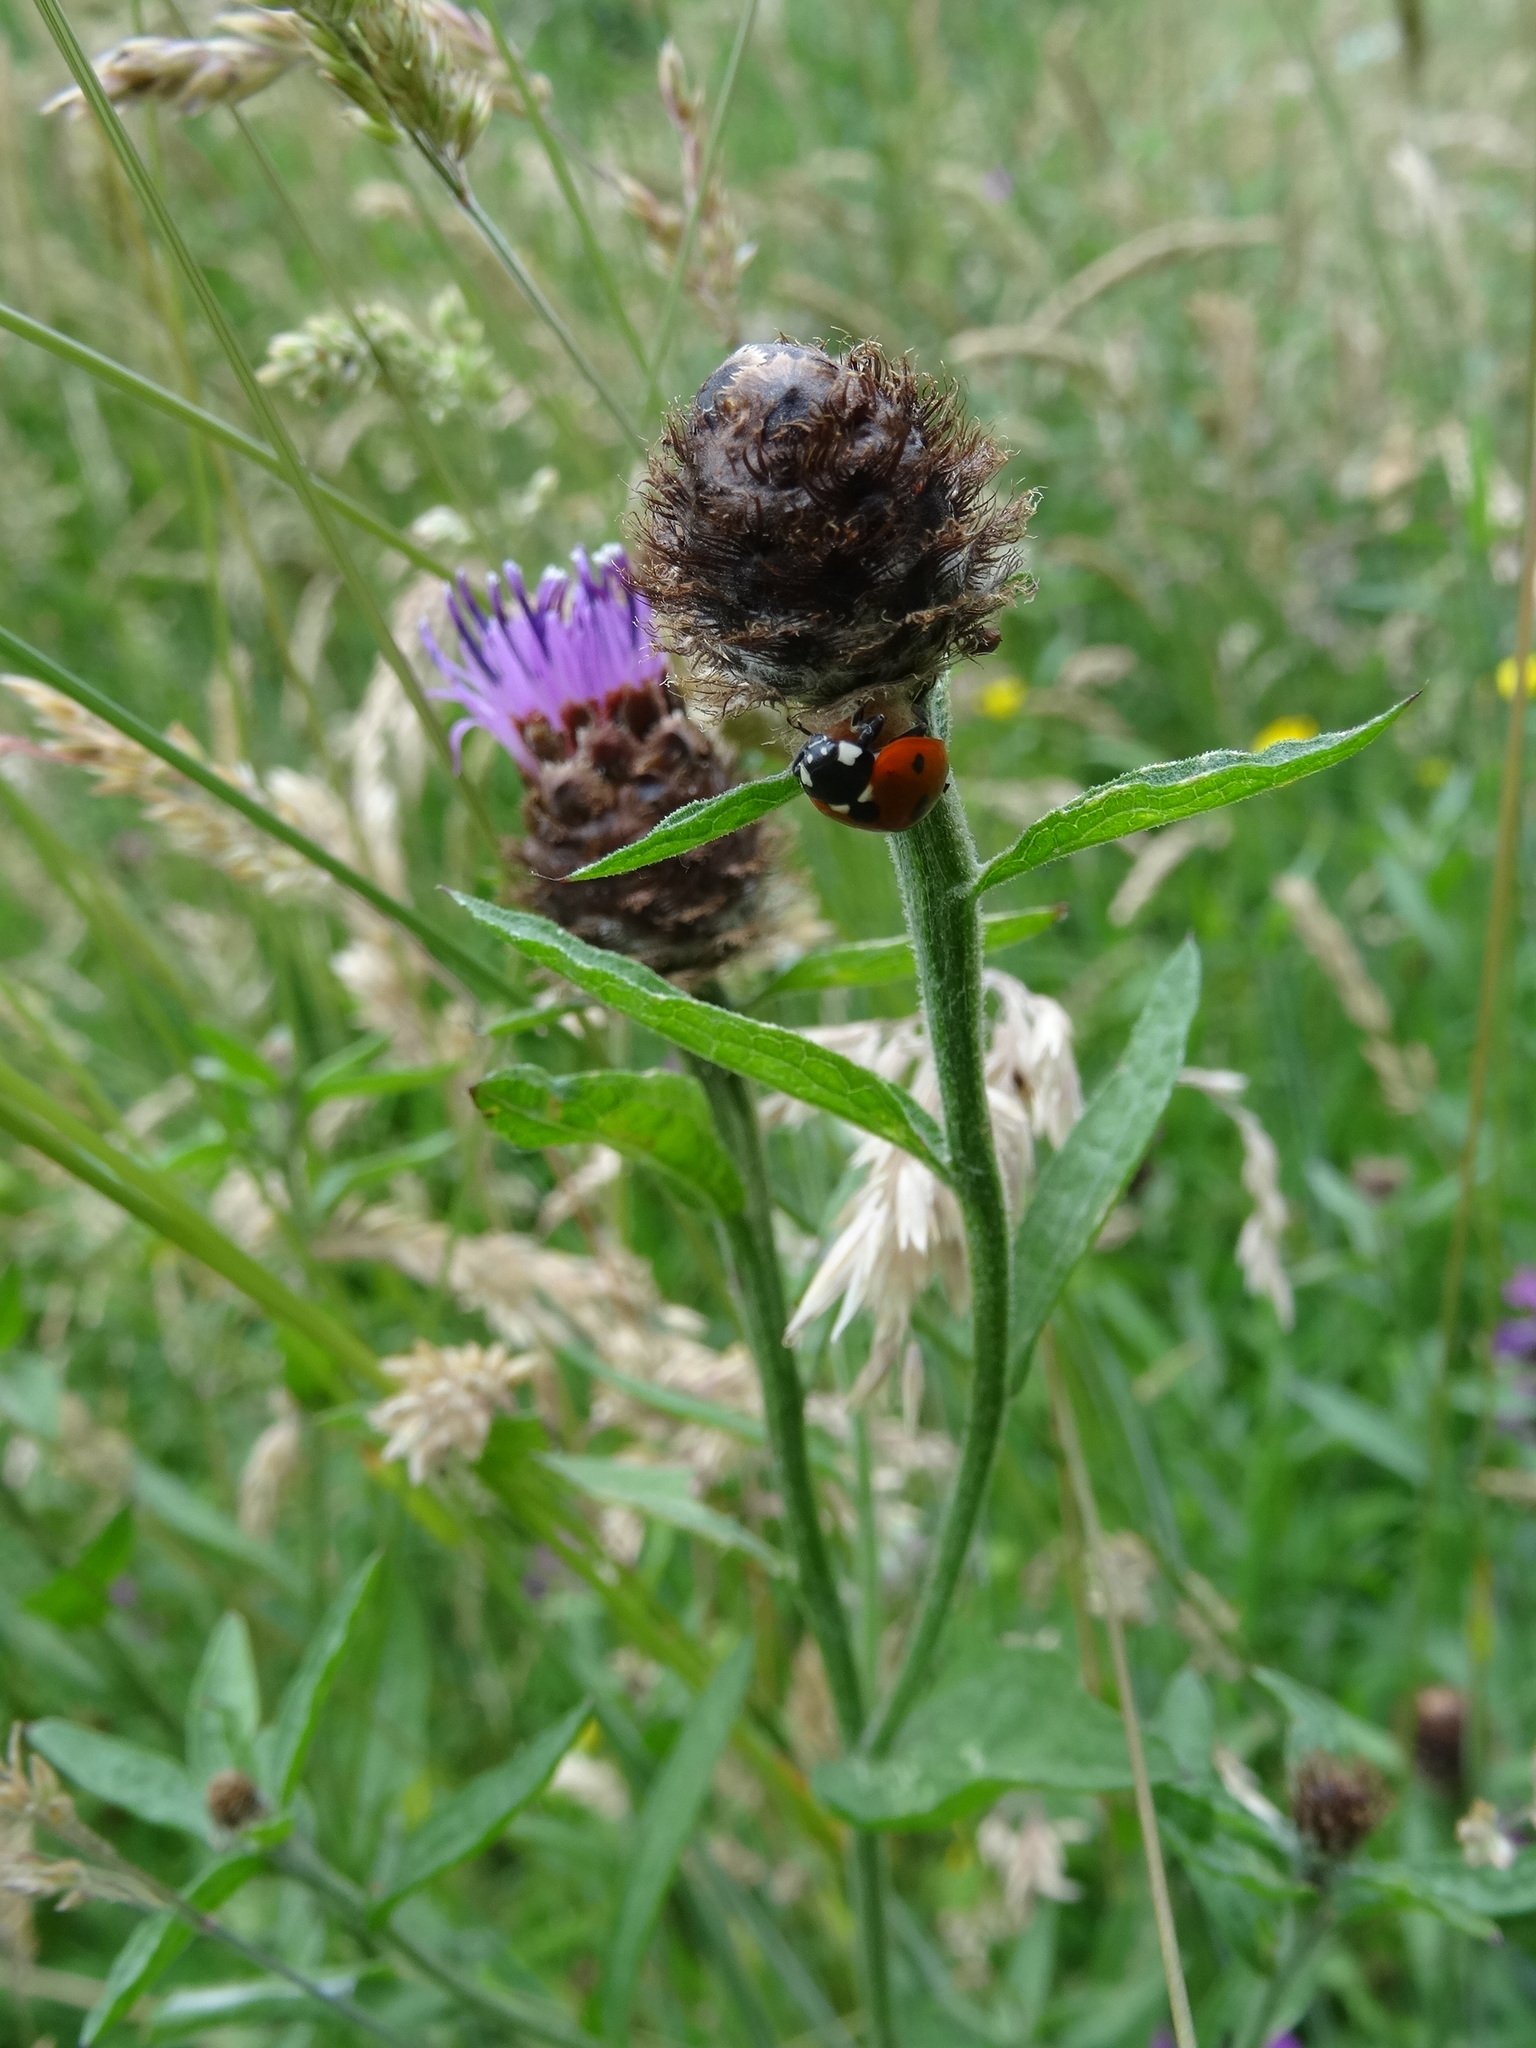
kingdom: Animalia
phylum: Arthropoda
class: Insecta
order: Coleoptera
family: Coccinellidae
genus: Coccinella
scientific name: Coccinella septempunctata
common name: Sevenspotted lady beetle
